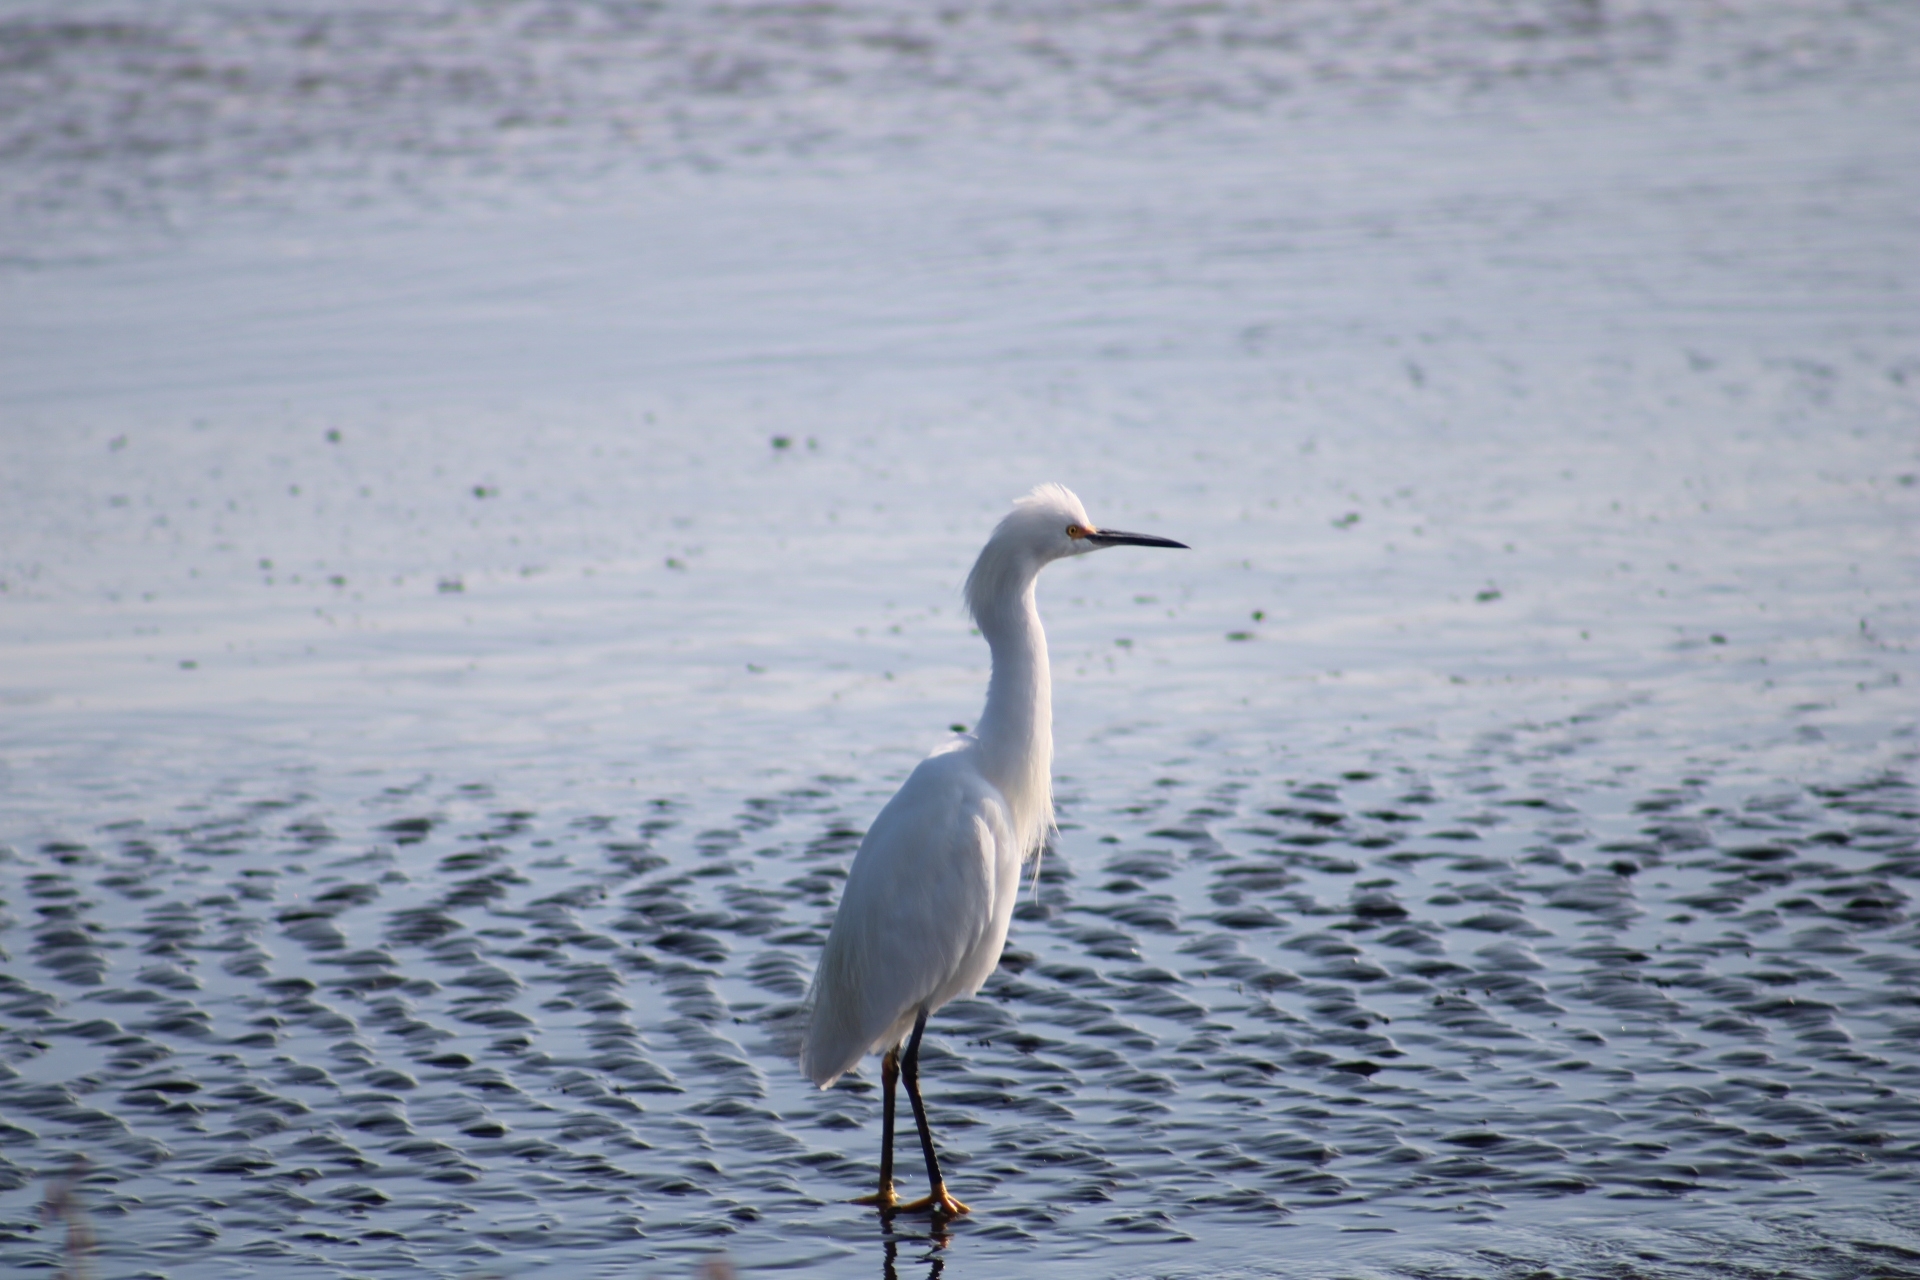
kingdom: Animalia
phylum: Chordata
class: Aves
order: Pelecaniformes
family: Ardeidae
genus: Egretta
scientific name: Egretta thula
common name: Snowy egret
